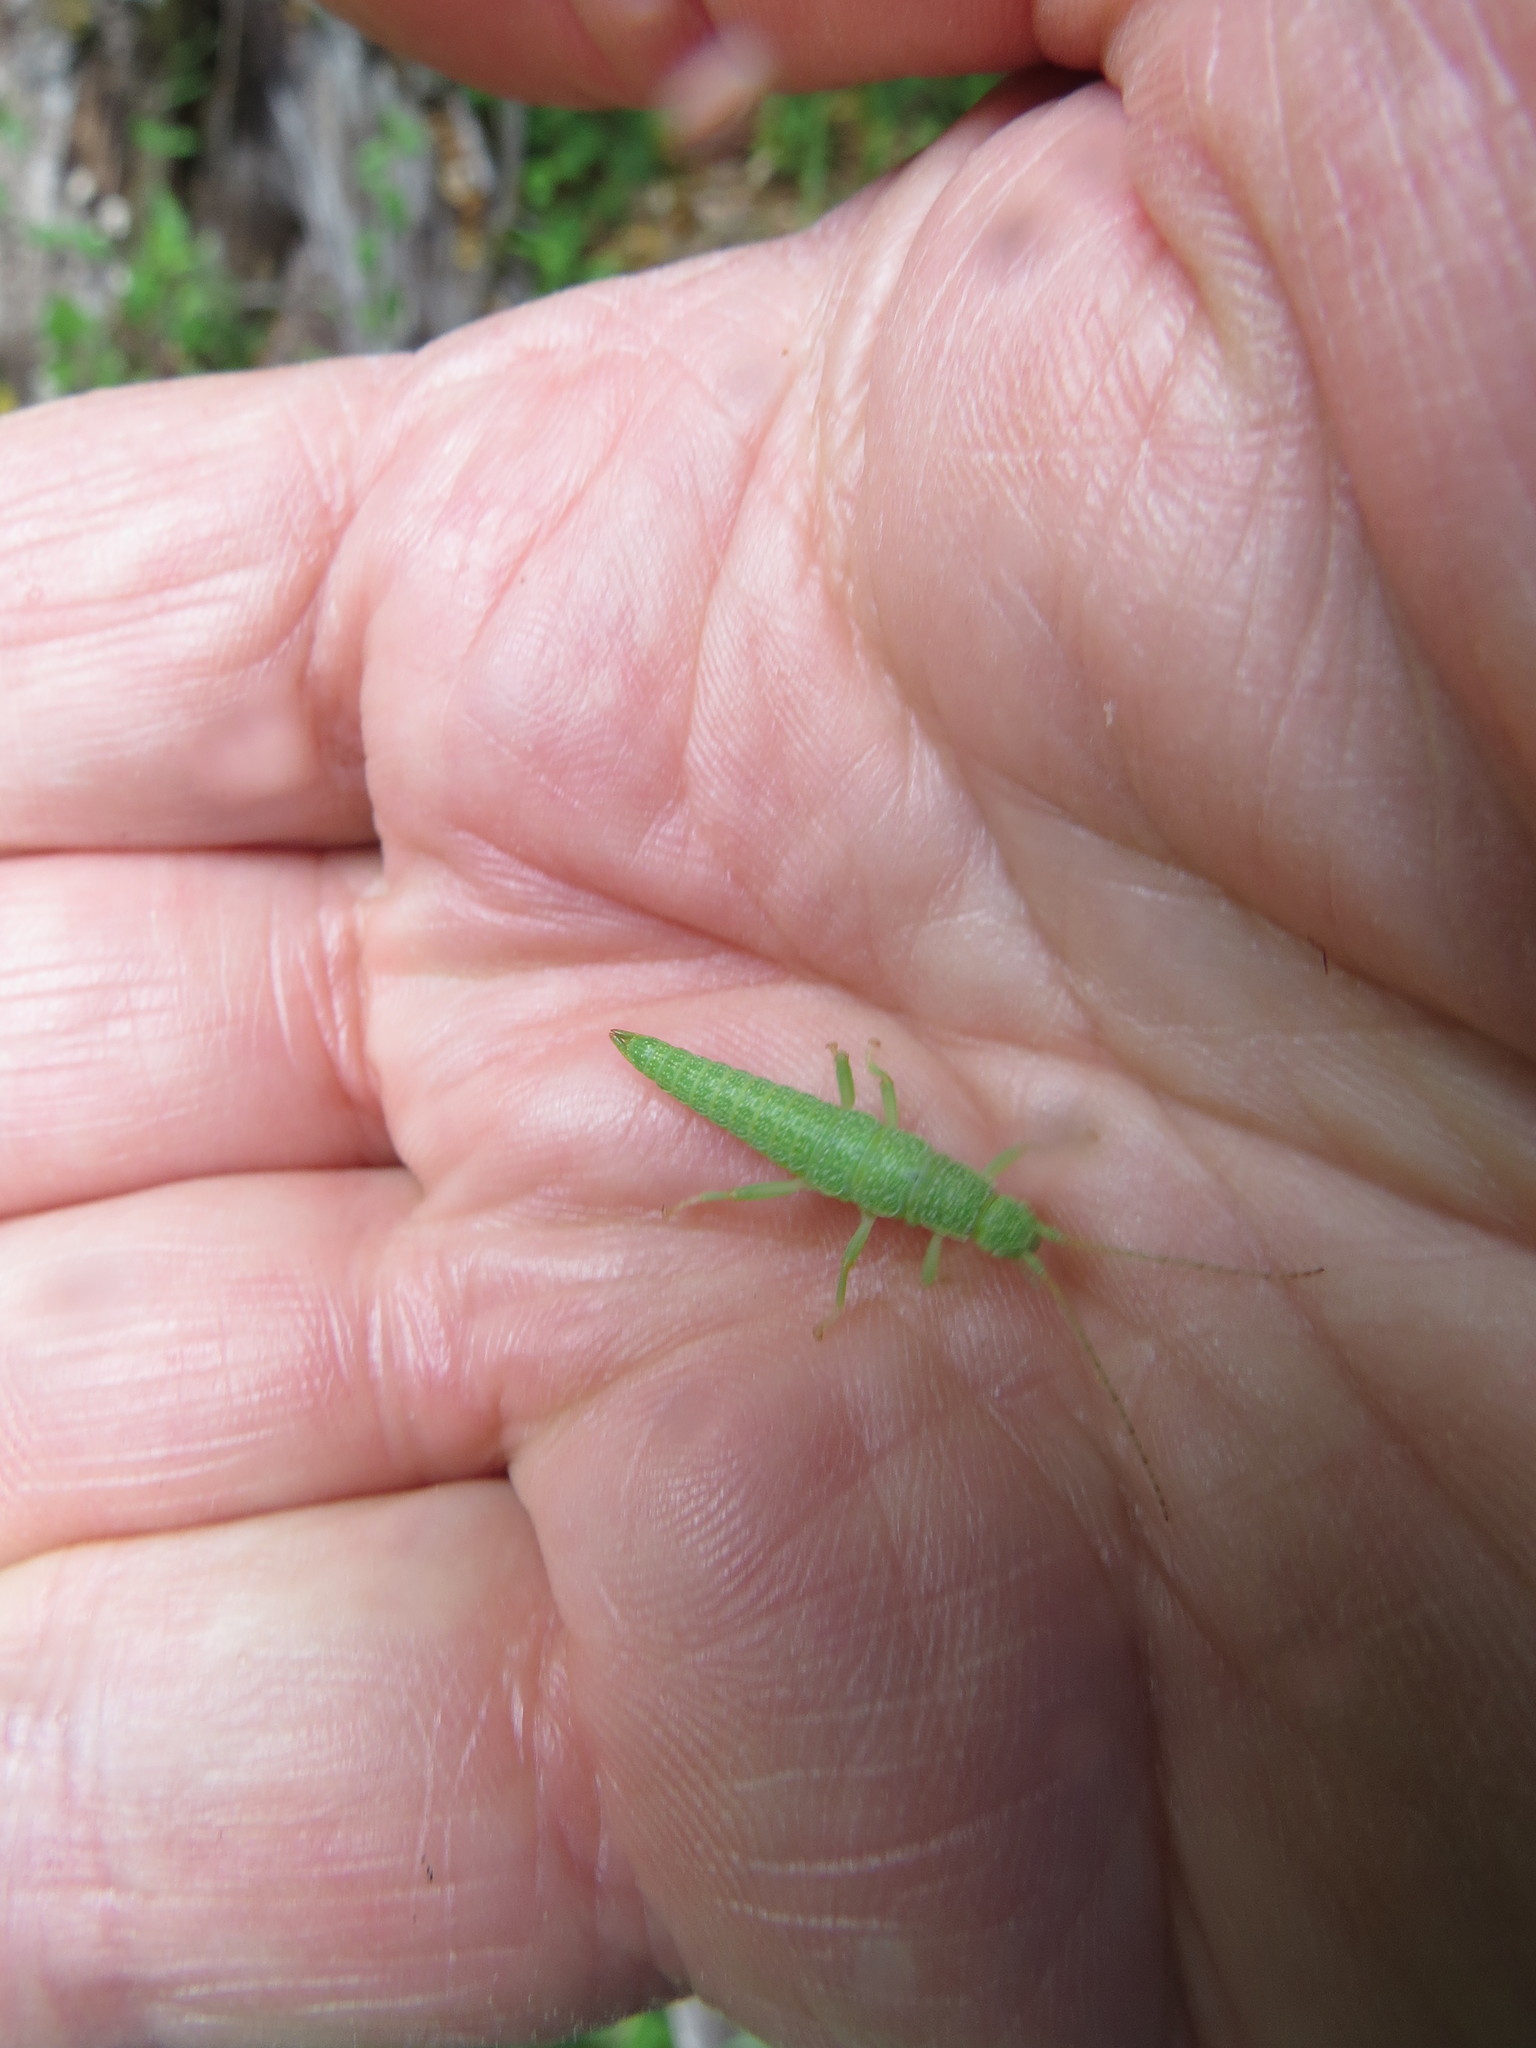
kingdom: Animalia
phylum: Arthropoda
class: Insecta
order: Phasmida
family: Timematidae
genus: Timema
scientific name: Timema californicum
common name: California timema
